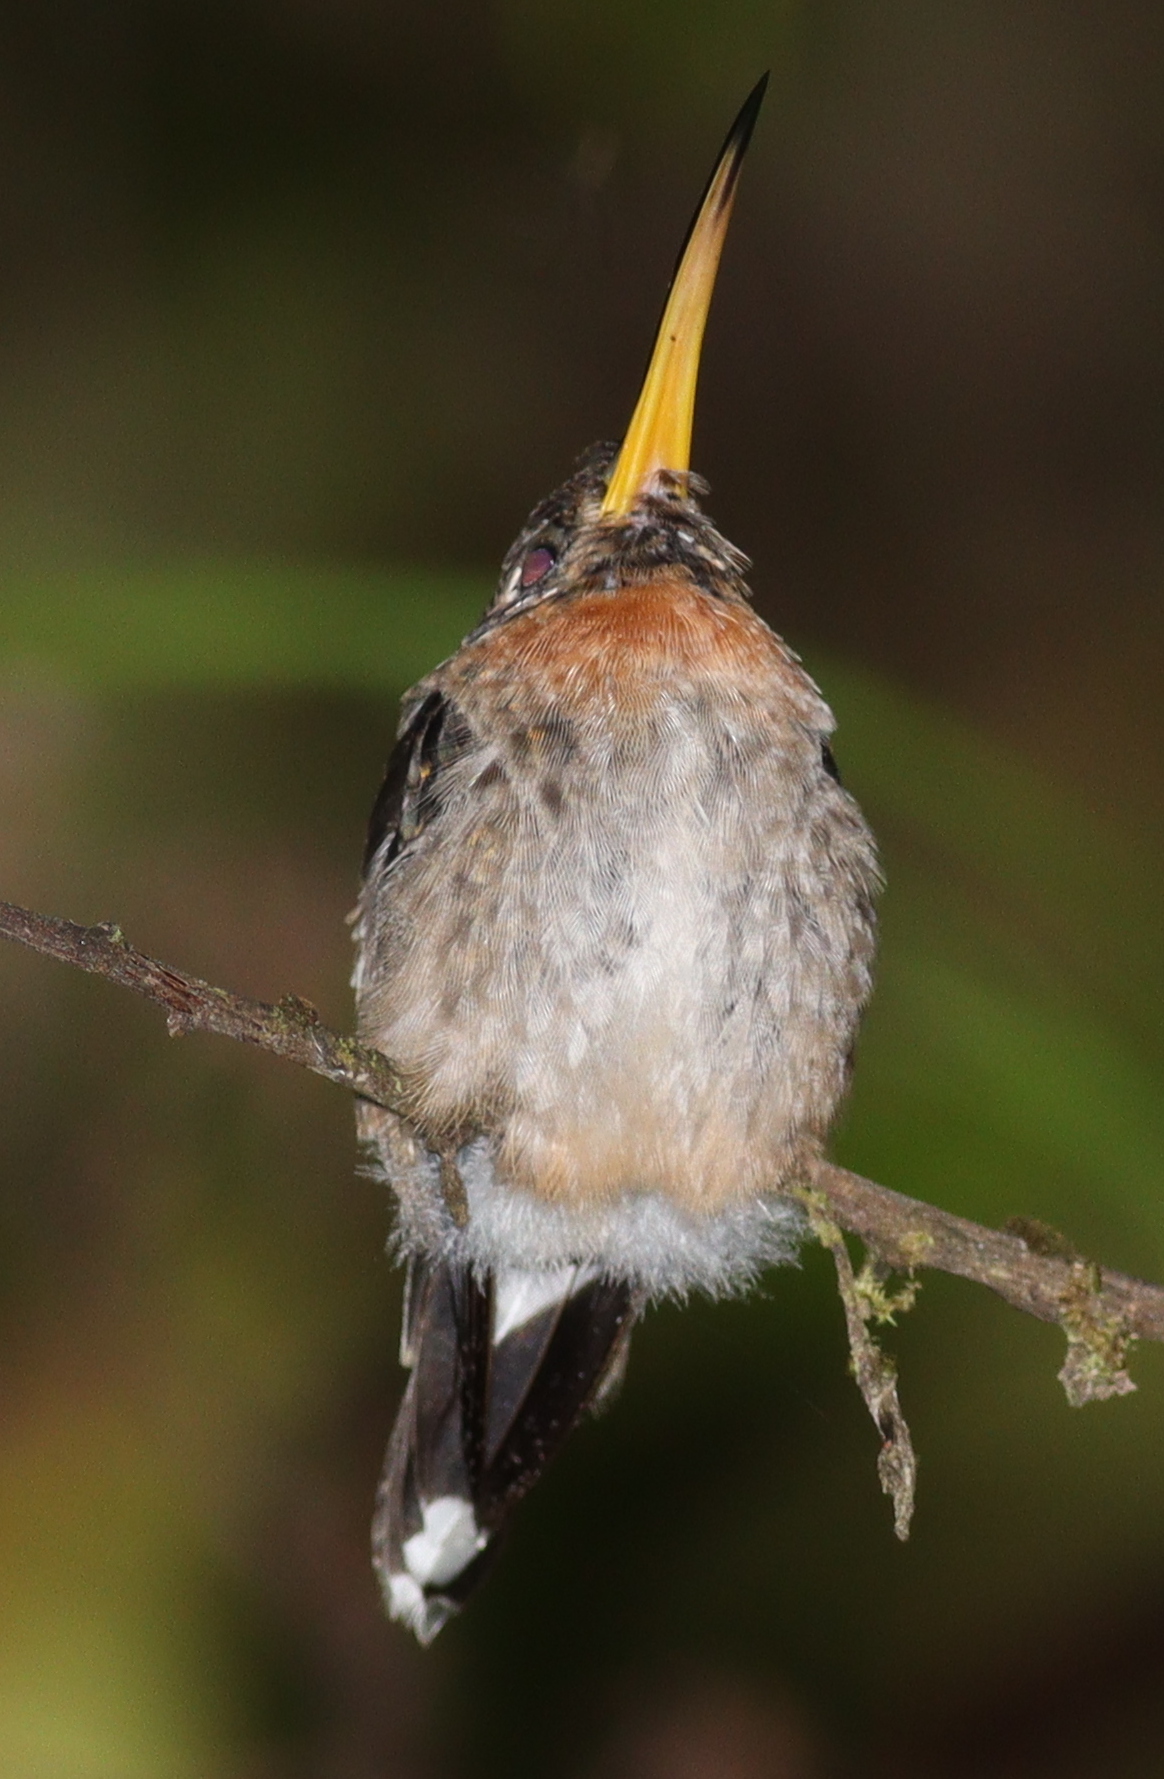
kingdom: Animalia
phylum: Chordata
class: Aves
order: Apodiformes
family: Trochilidae
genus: Threnetes
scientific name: Threnetes ruckeri
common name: Band-tailed barbthroat
